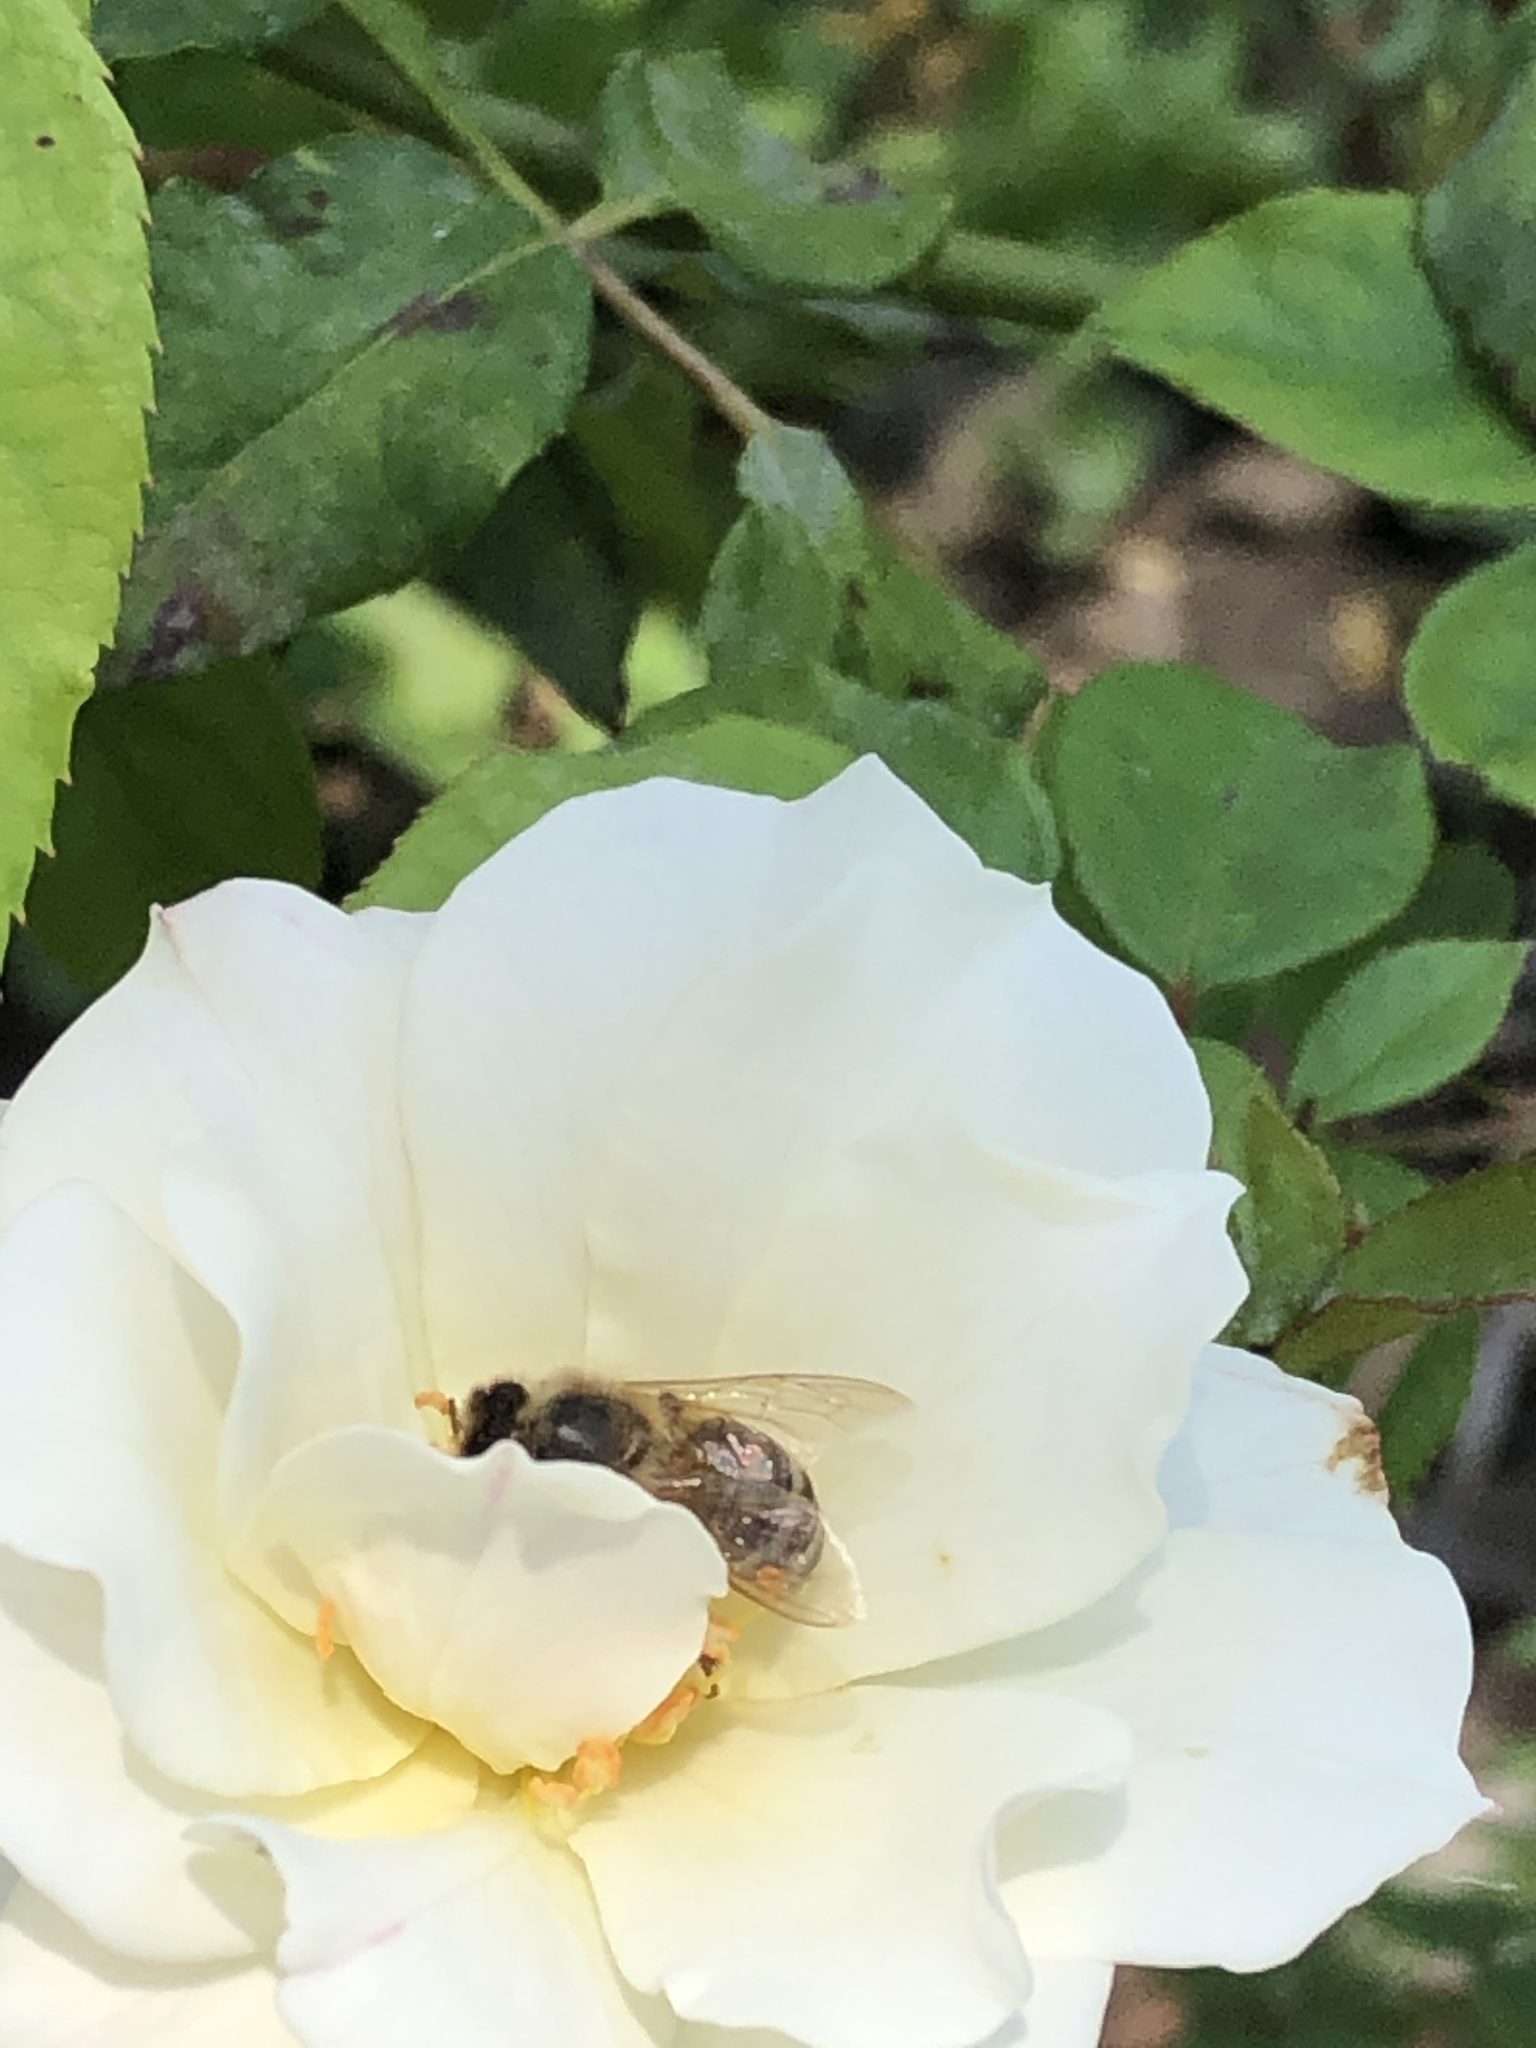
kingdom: Animalia
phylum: Arthropoda
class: Insecta
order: Hymenoptera
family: Apidae
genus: Apis
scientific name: Apis mellifera
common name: Honey bee
